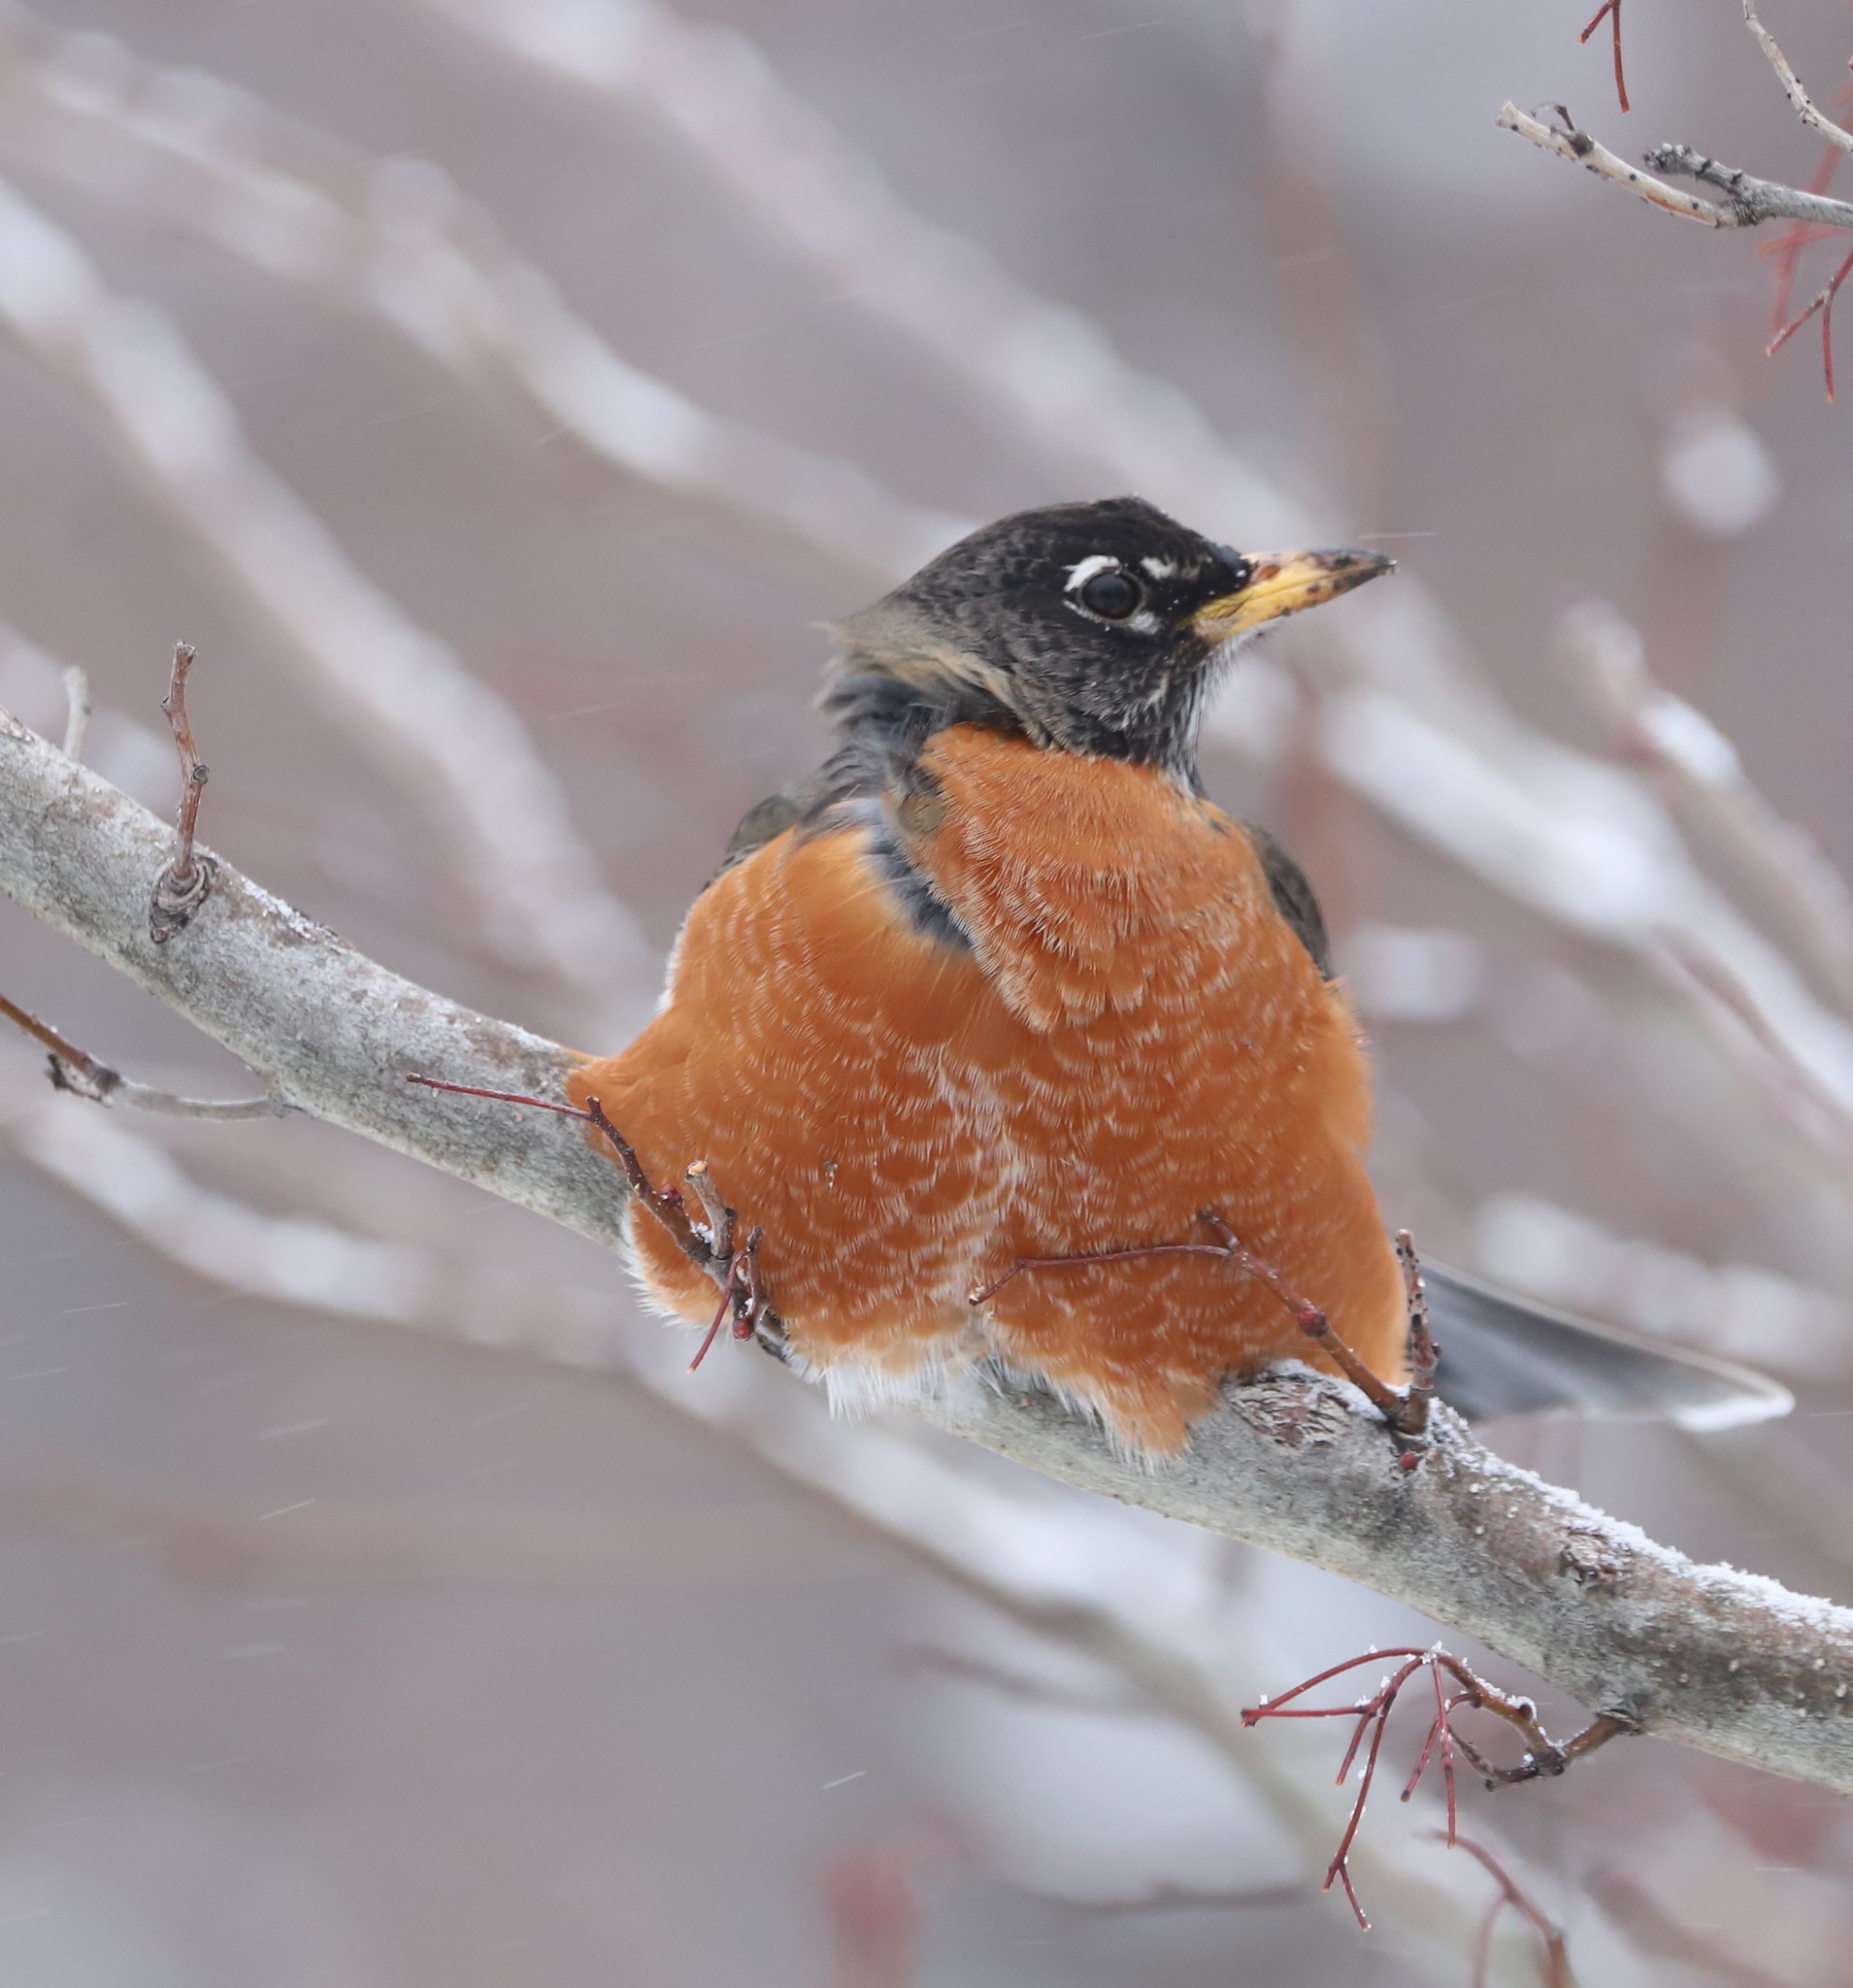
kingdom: Animalia
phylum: Chordata
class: Aves
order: Passeriformes
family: Turdidae
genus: Turdus
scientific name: Turdus migratorius
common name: American robin
